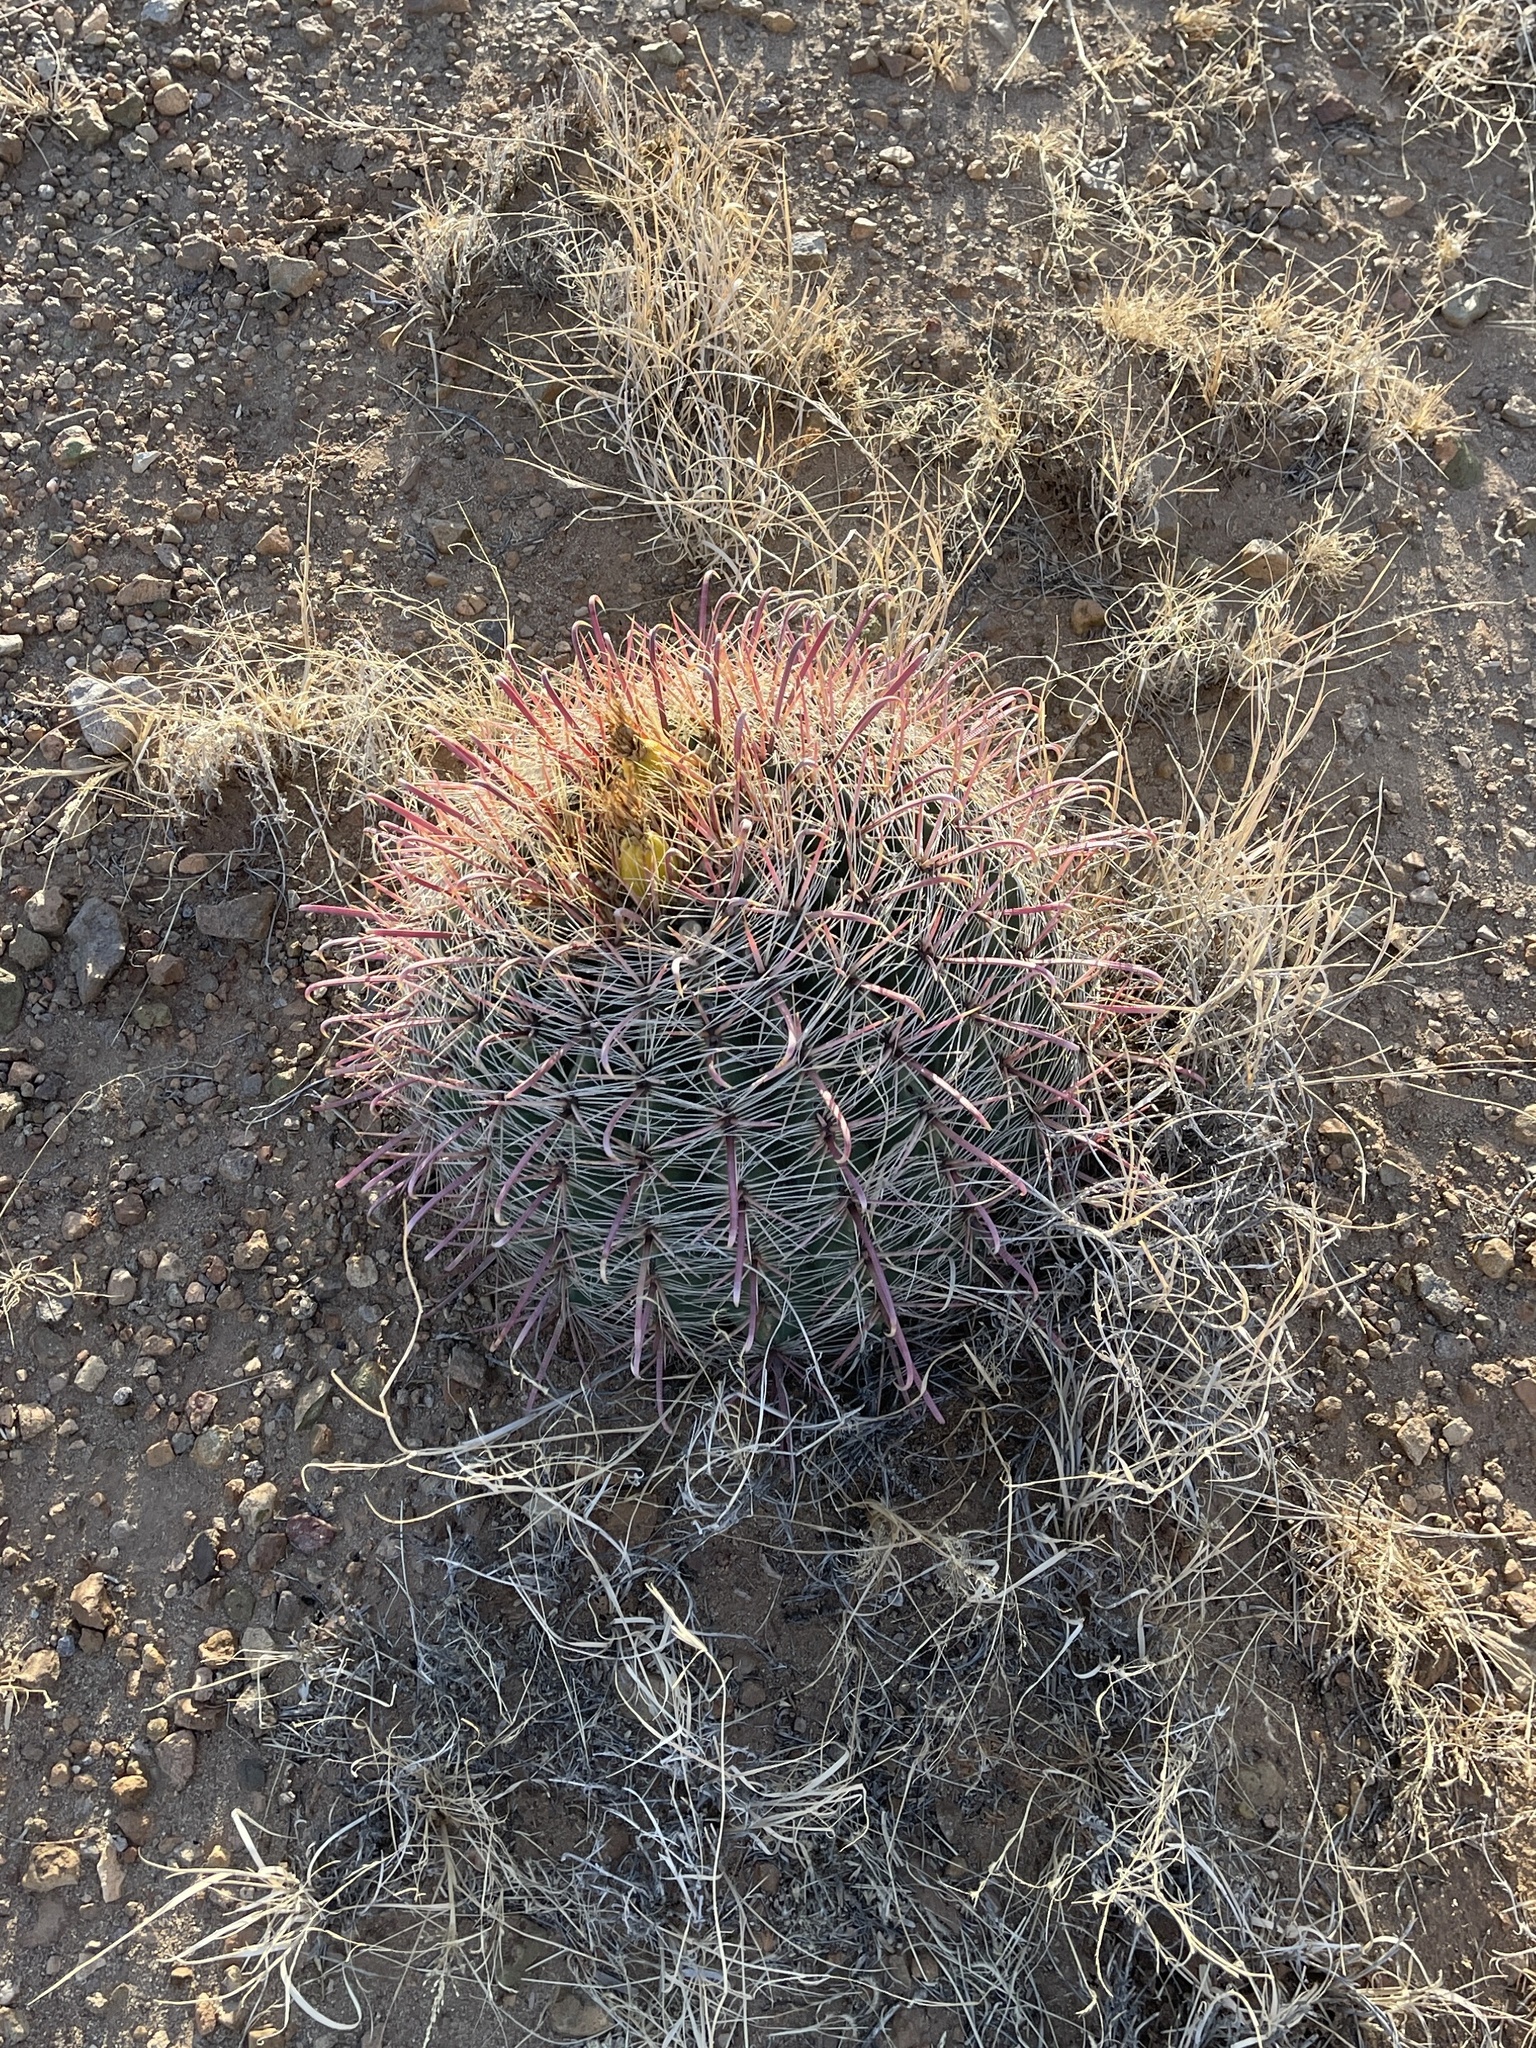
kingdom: Plantae
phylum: Tracheophyta
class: Magnoliopsida
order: Caryophyllales
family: Cactaceae
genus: Ferocactus
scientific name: Ferocactus wislizeni
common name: Candy barrel cactus
